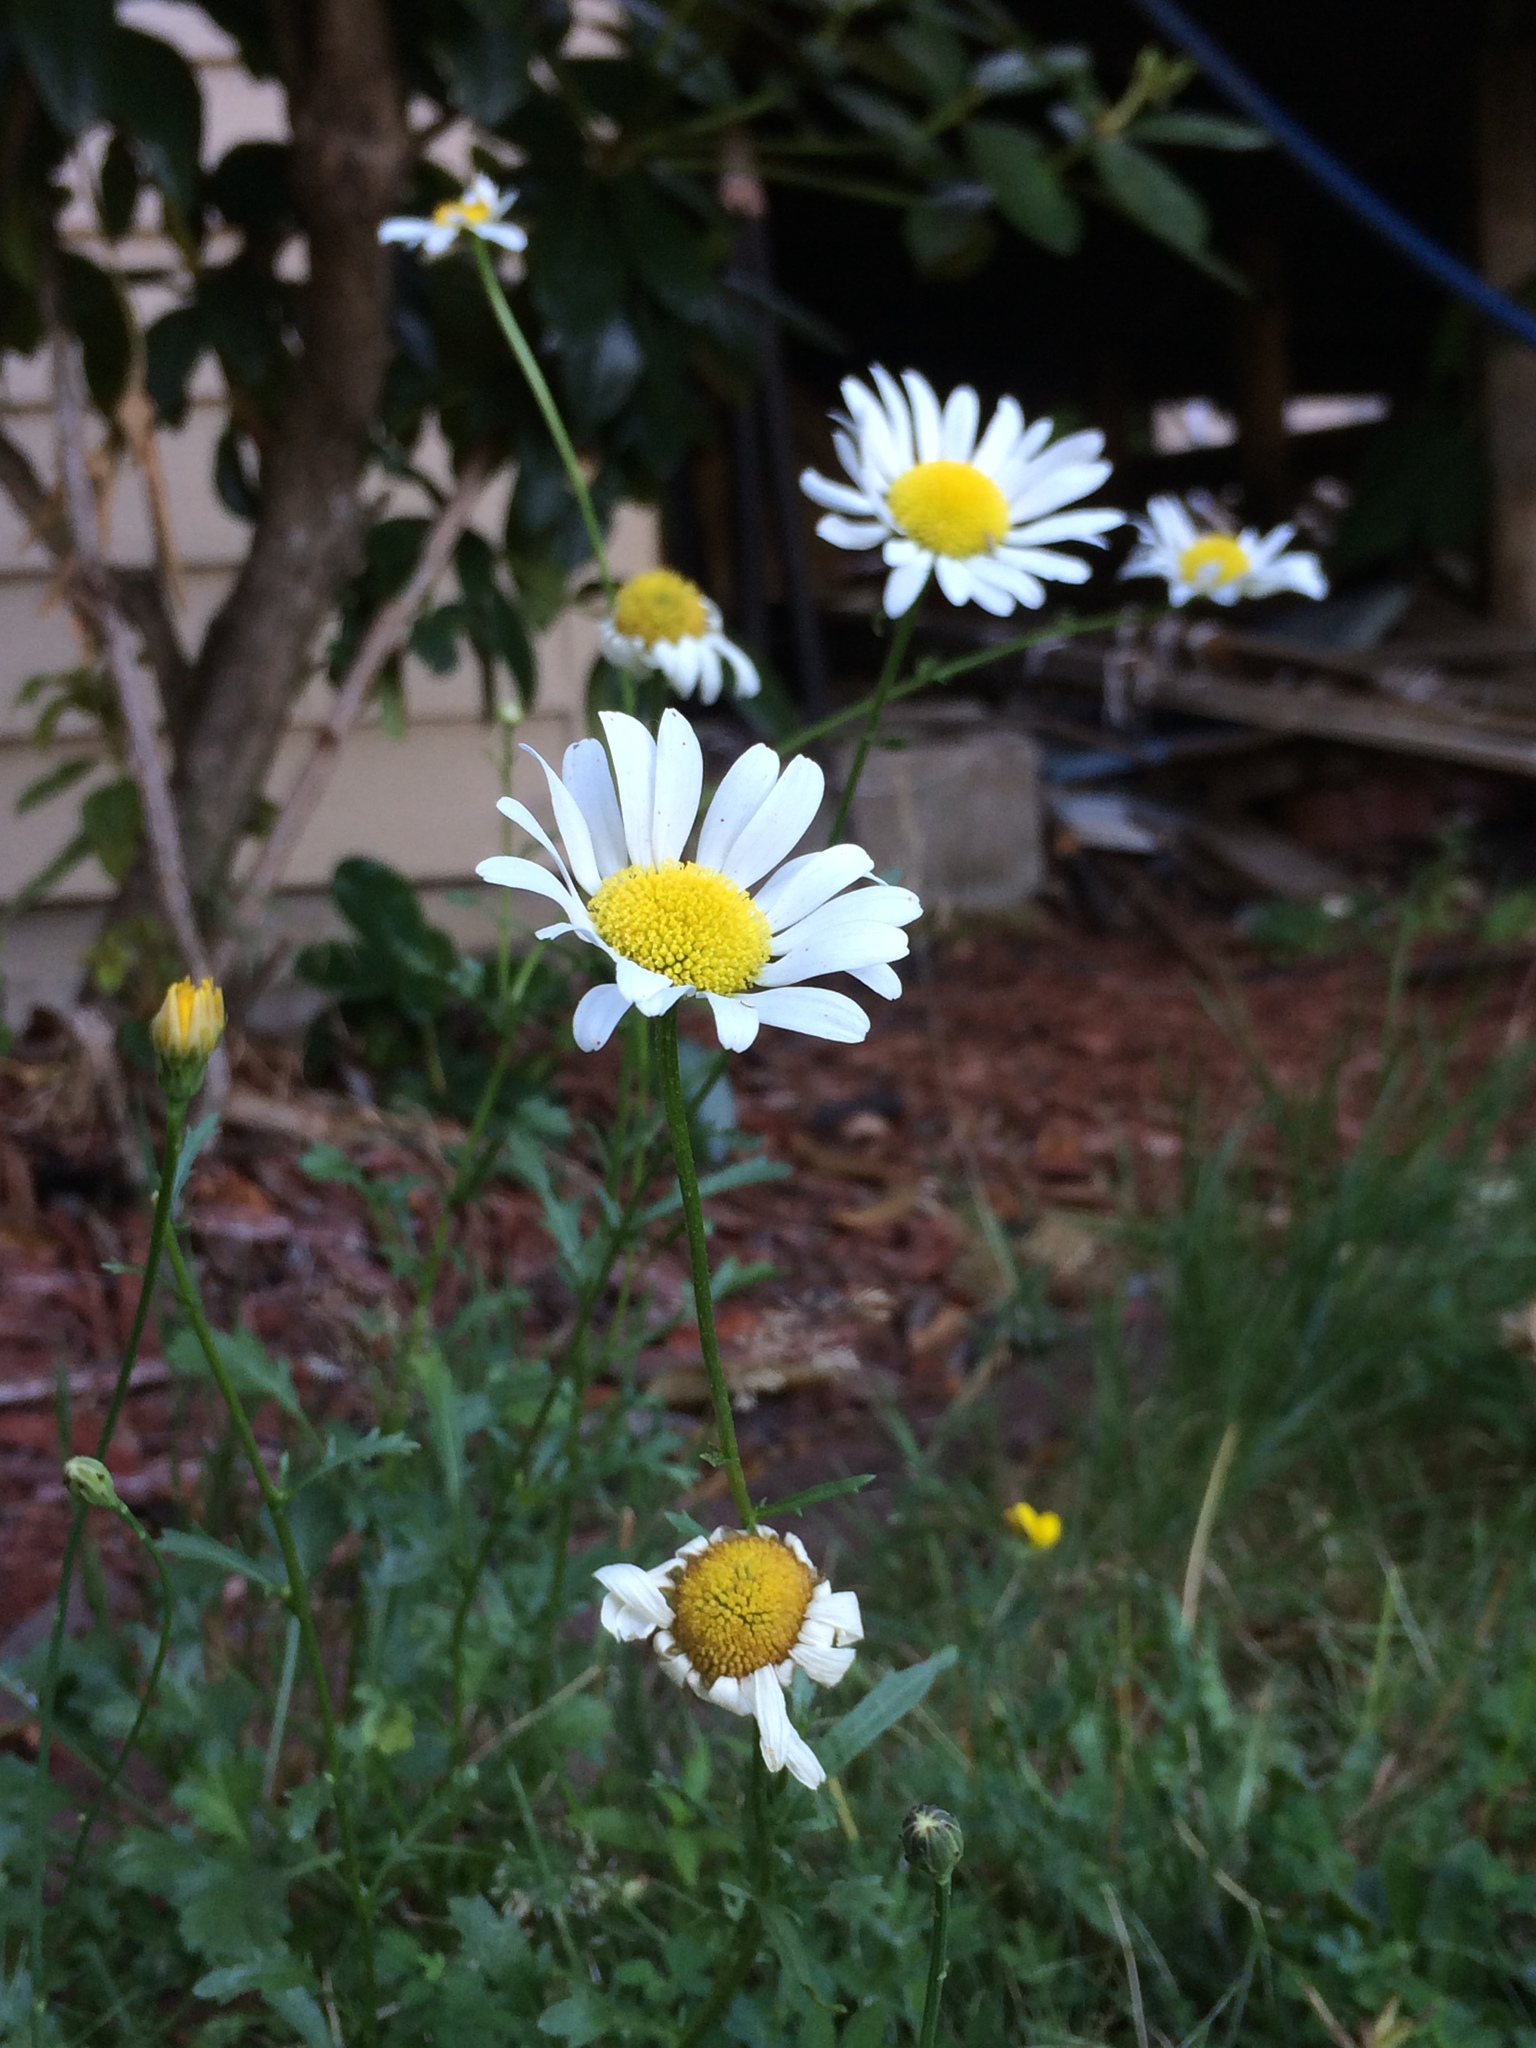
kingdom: Plantae
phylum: Tracheophyta
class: Magnoliopsida
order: Asterales
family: Asteraceae
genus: Leucanthemum
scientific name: Leucanthemum vulgare
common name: Oxeye daisy
